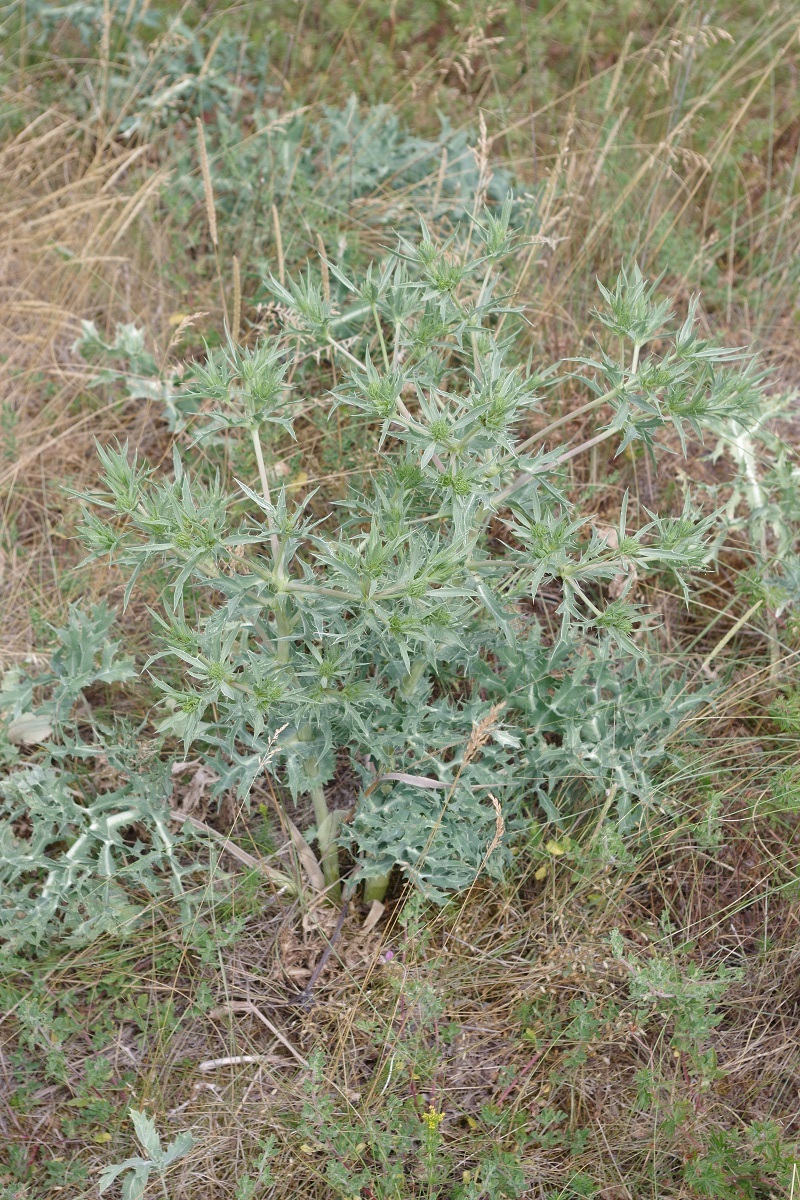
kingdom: Plantae
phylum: Tracheophyta
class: Magnoliopsida
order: Apiales
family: Apiaceae
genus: Eryngium
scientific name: Eryngium campestre
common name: Field eryngo
